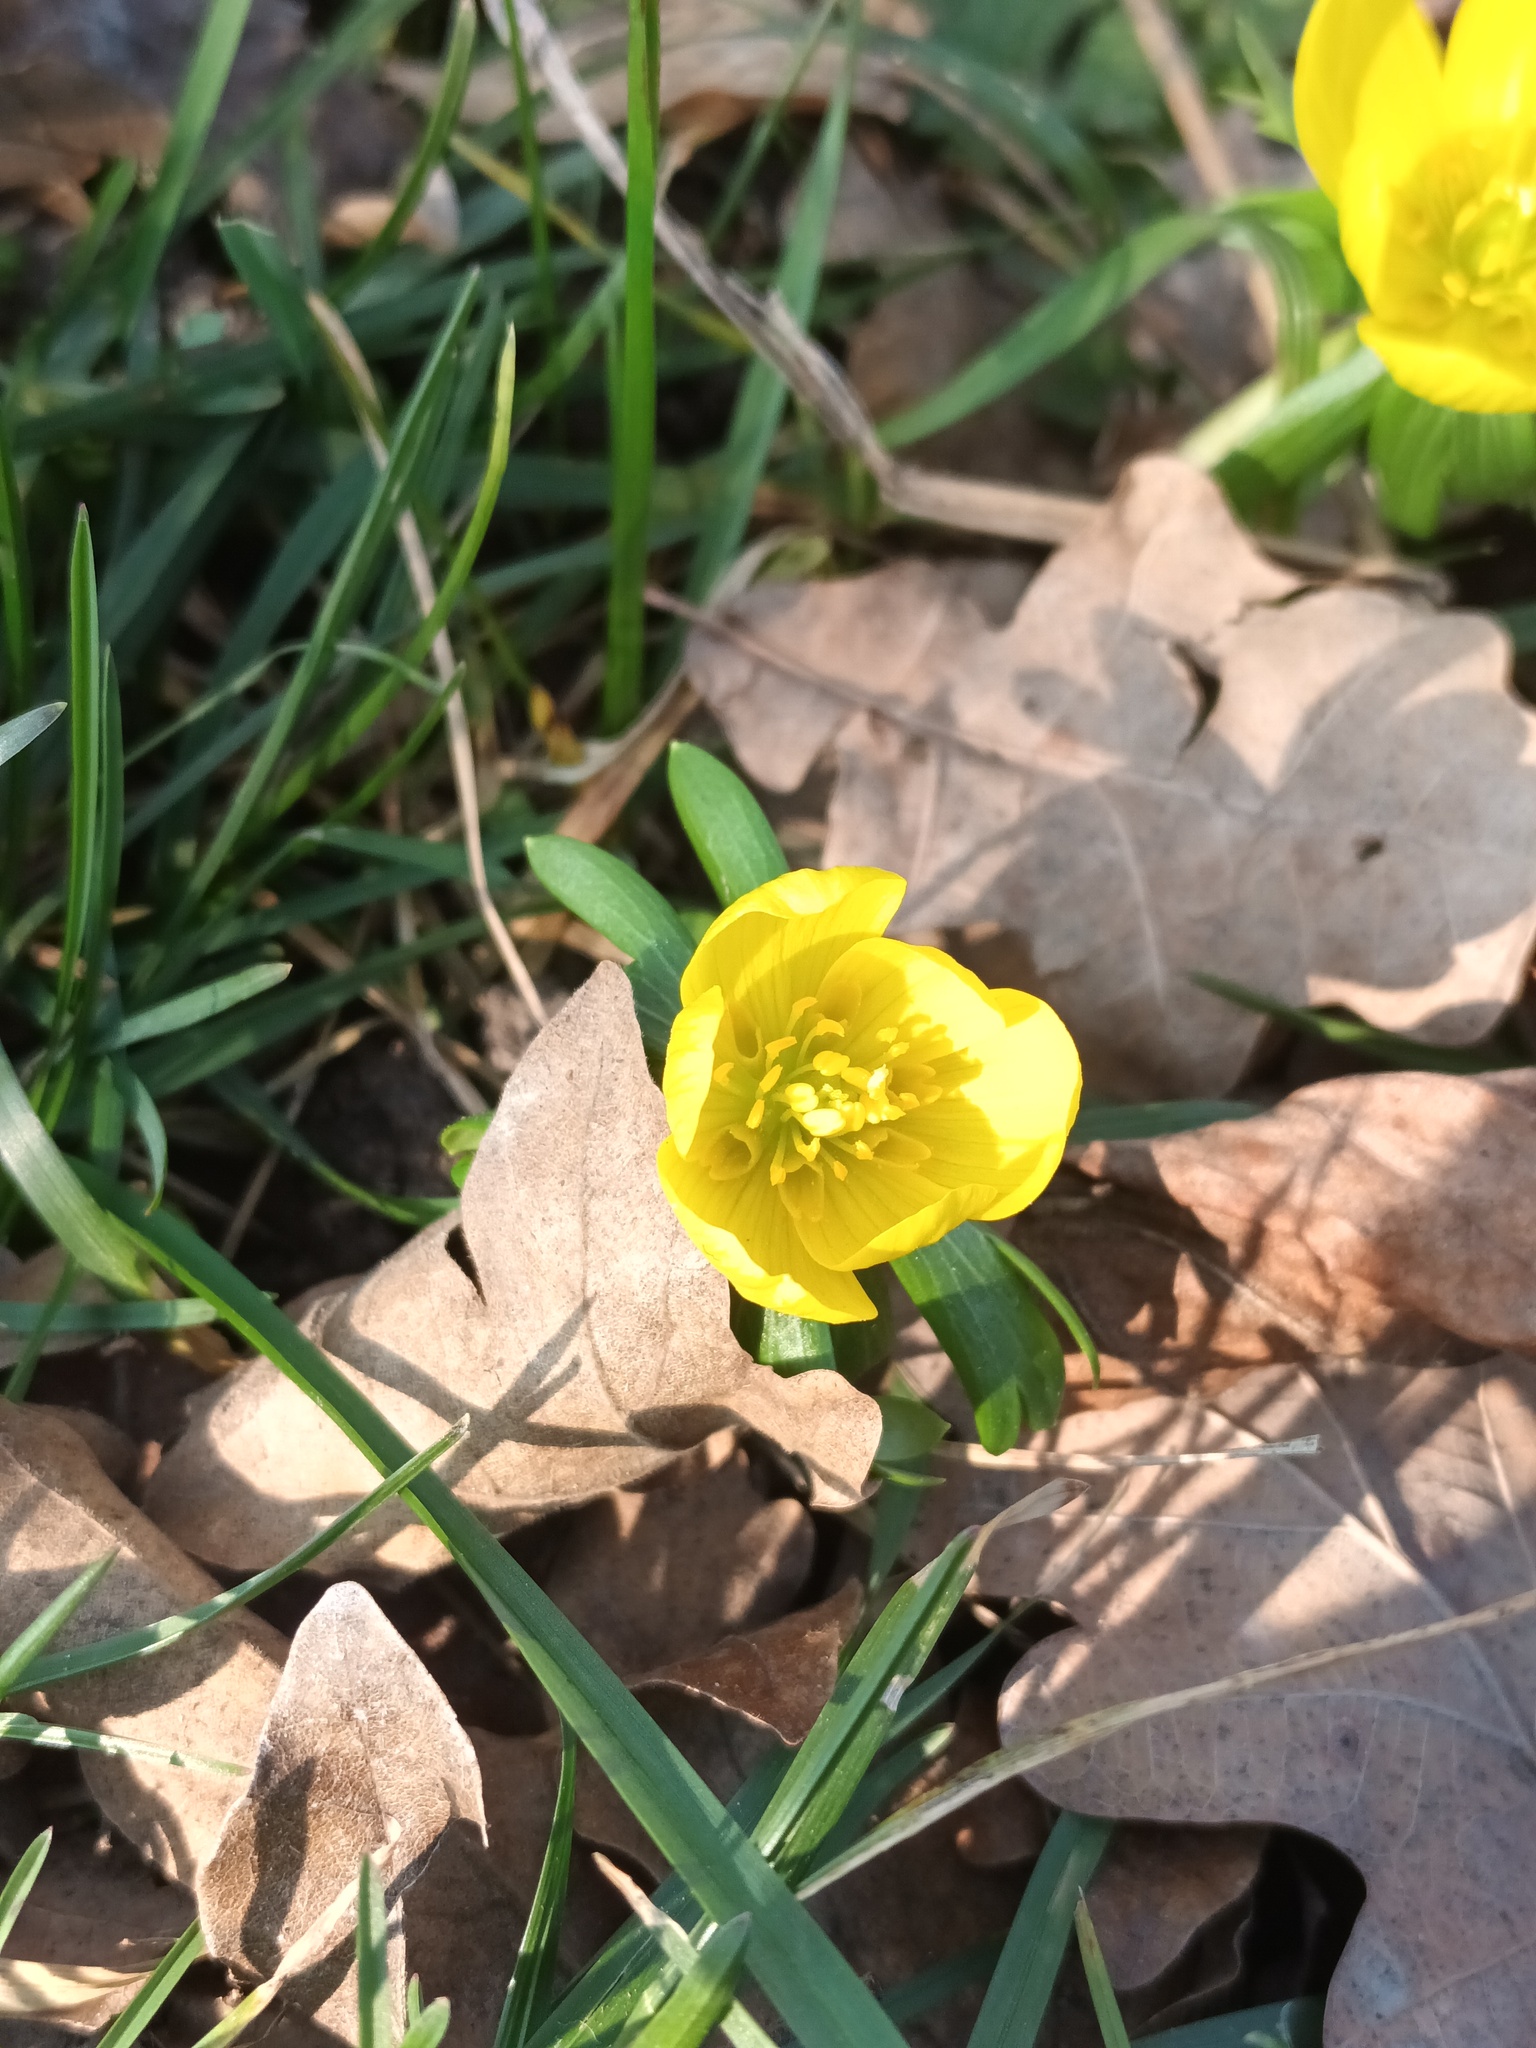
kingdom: Plantae
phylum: Tracheophyta
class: Magnoliopsida
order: Ranunculales
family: Ranunculaceae
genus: Eranthis
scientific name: Eranthis hyemalis
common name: Winter aconite
